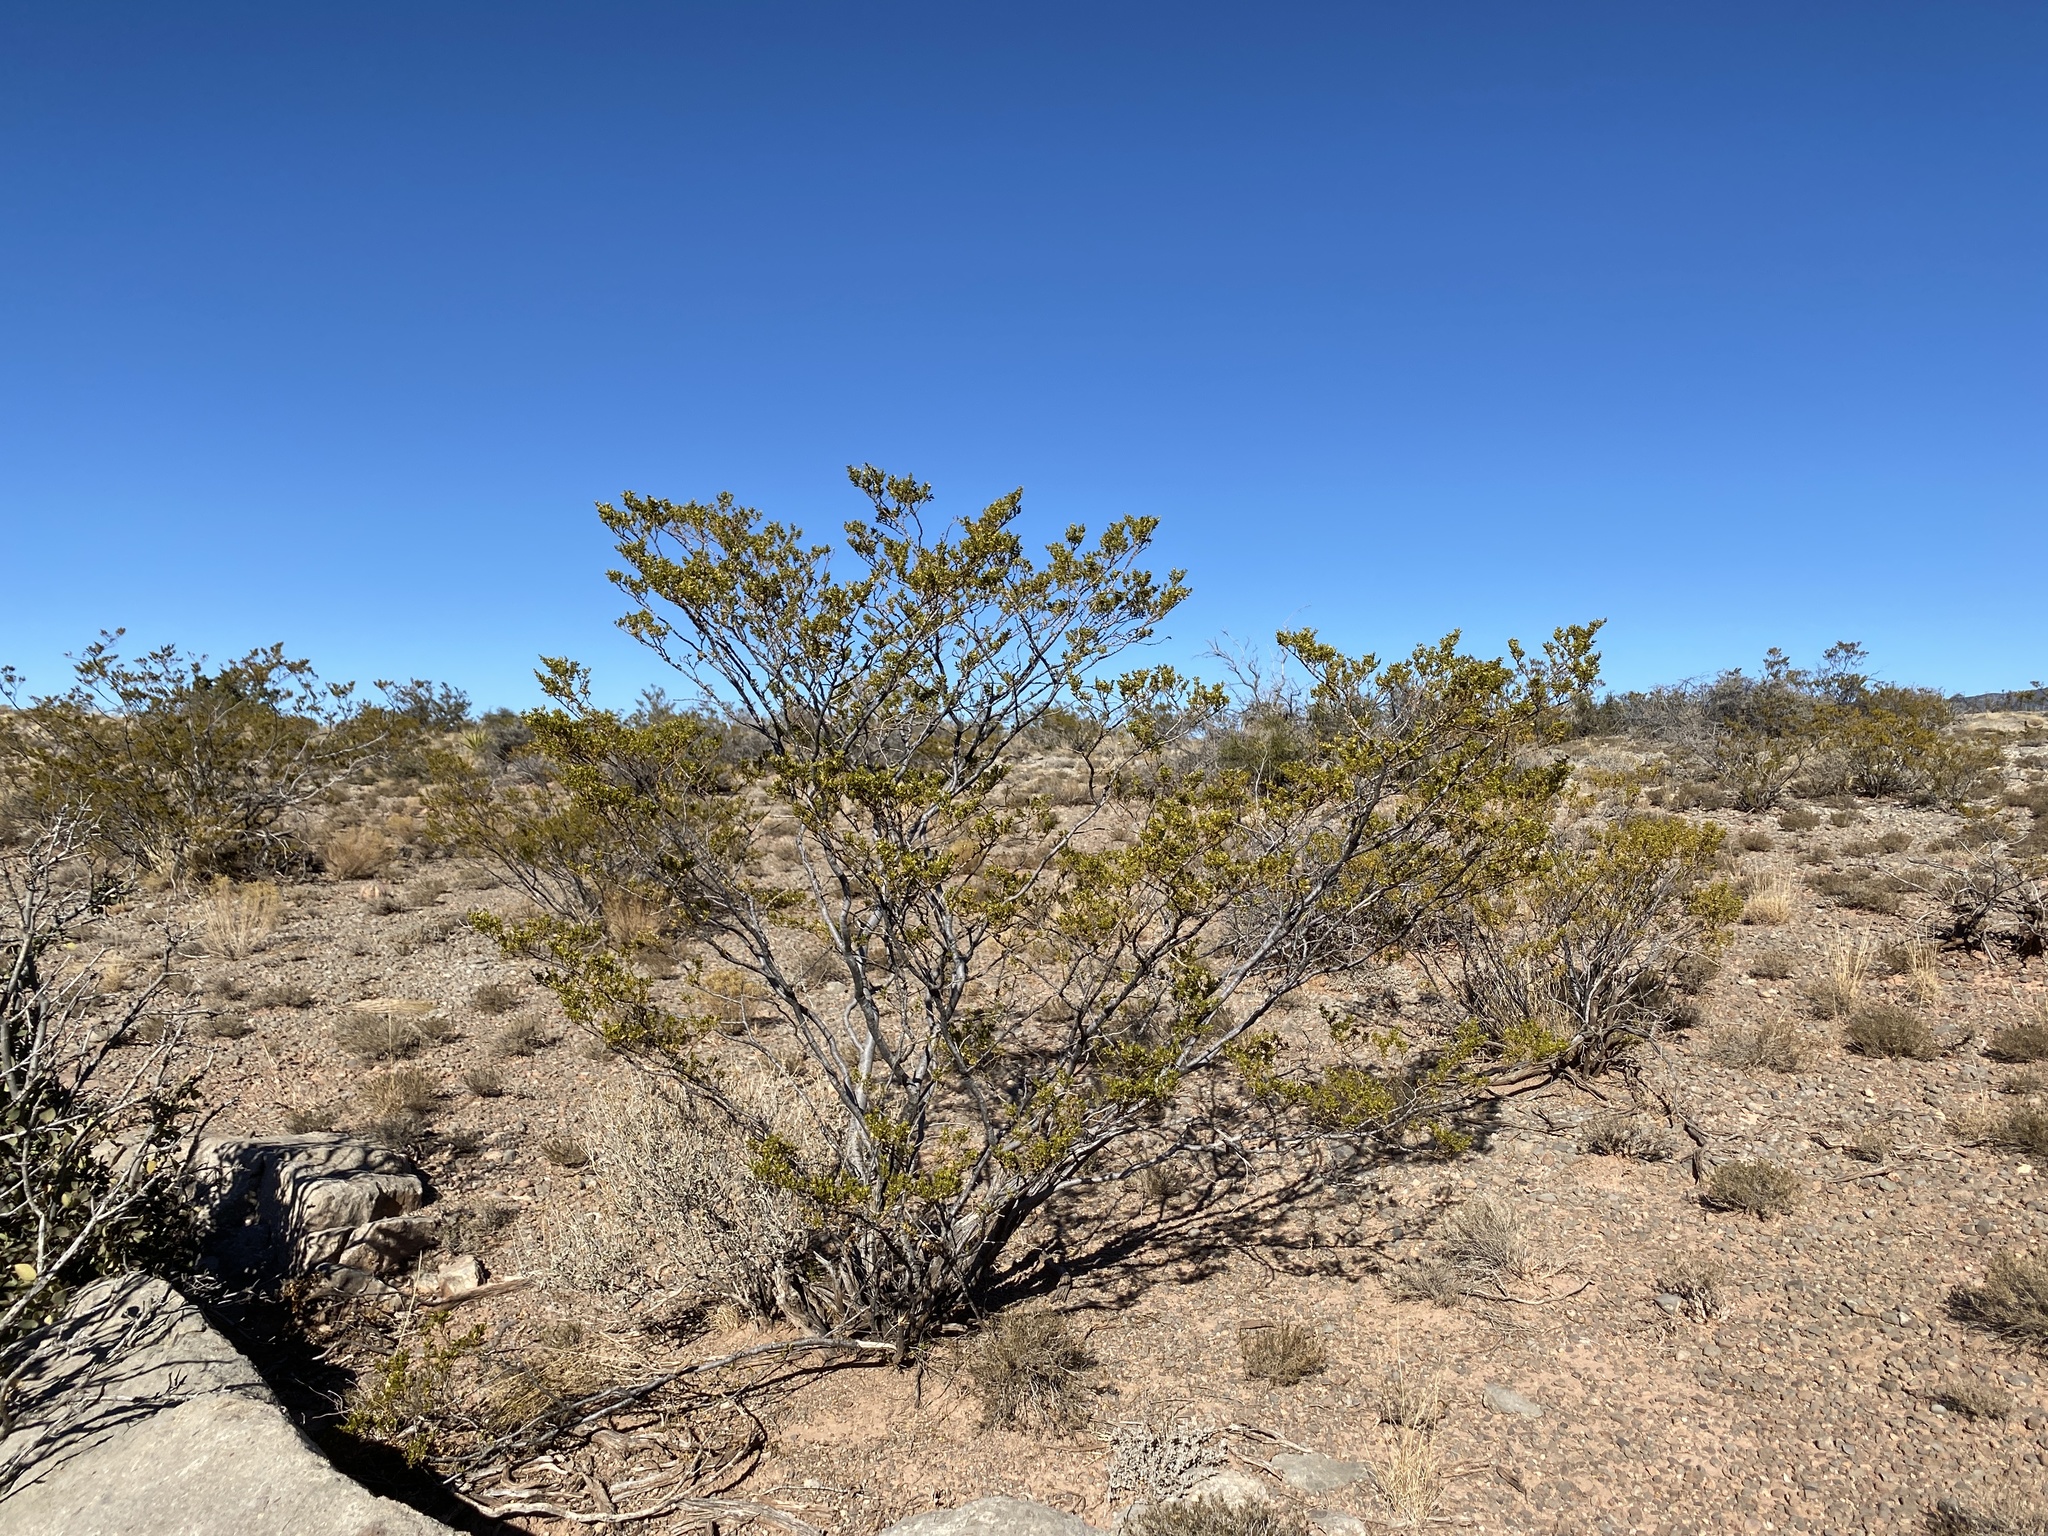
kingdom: Plantae
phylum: Tracheophyta
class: Magnoliopsida
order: Zygophyllales
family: Zygophyllaceae
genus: Larrea
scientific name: Larrea tridentata
